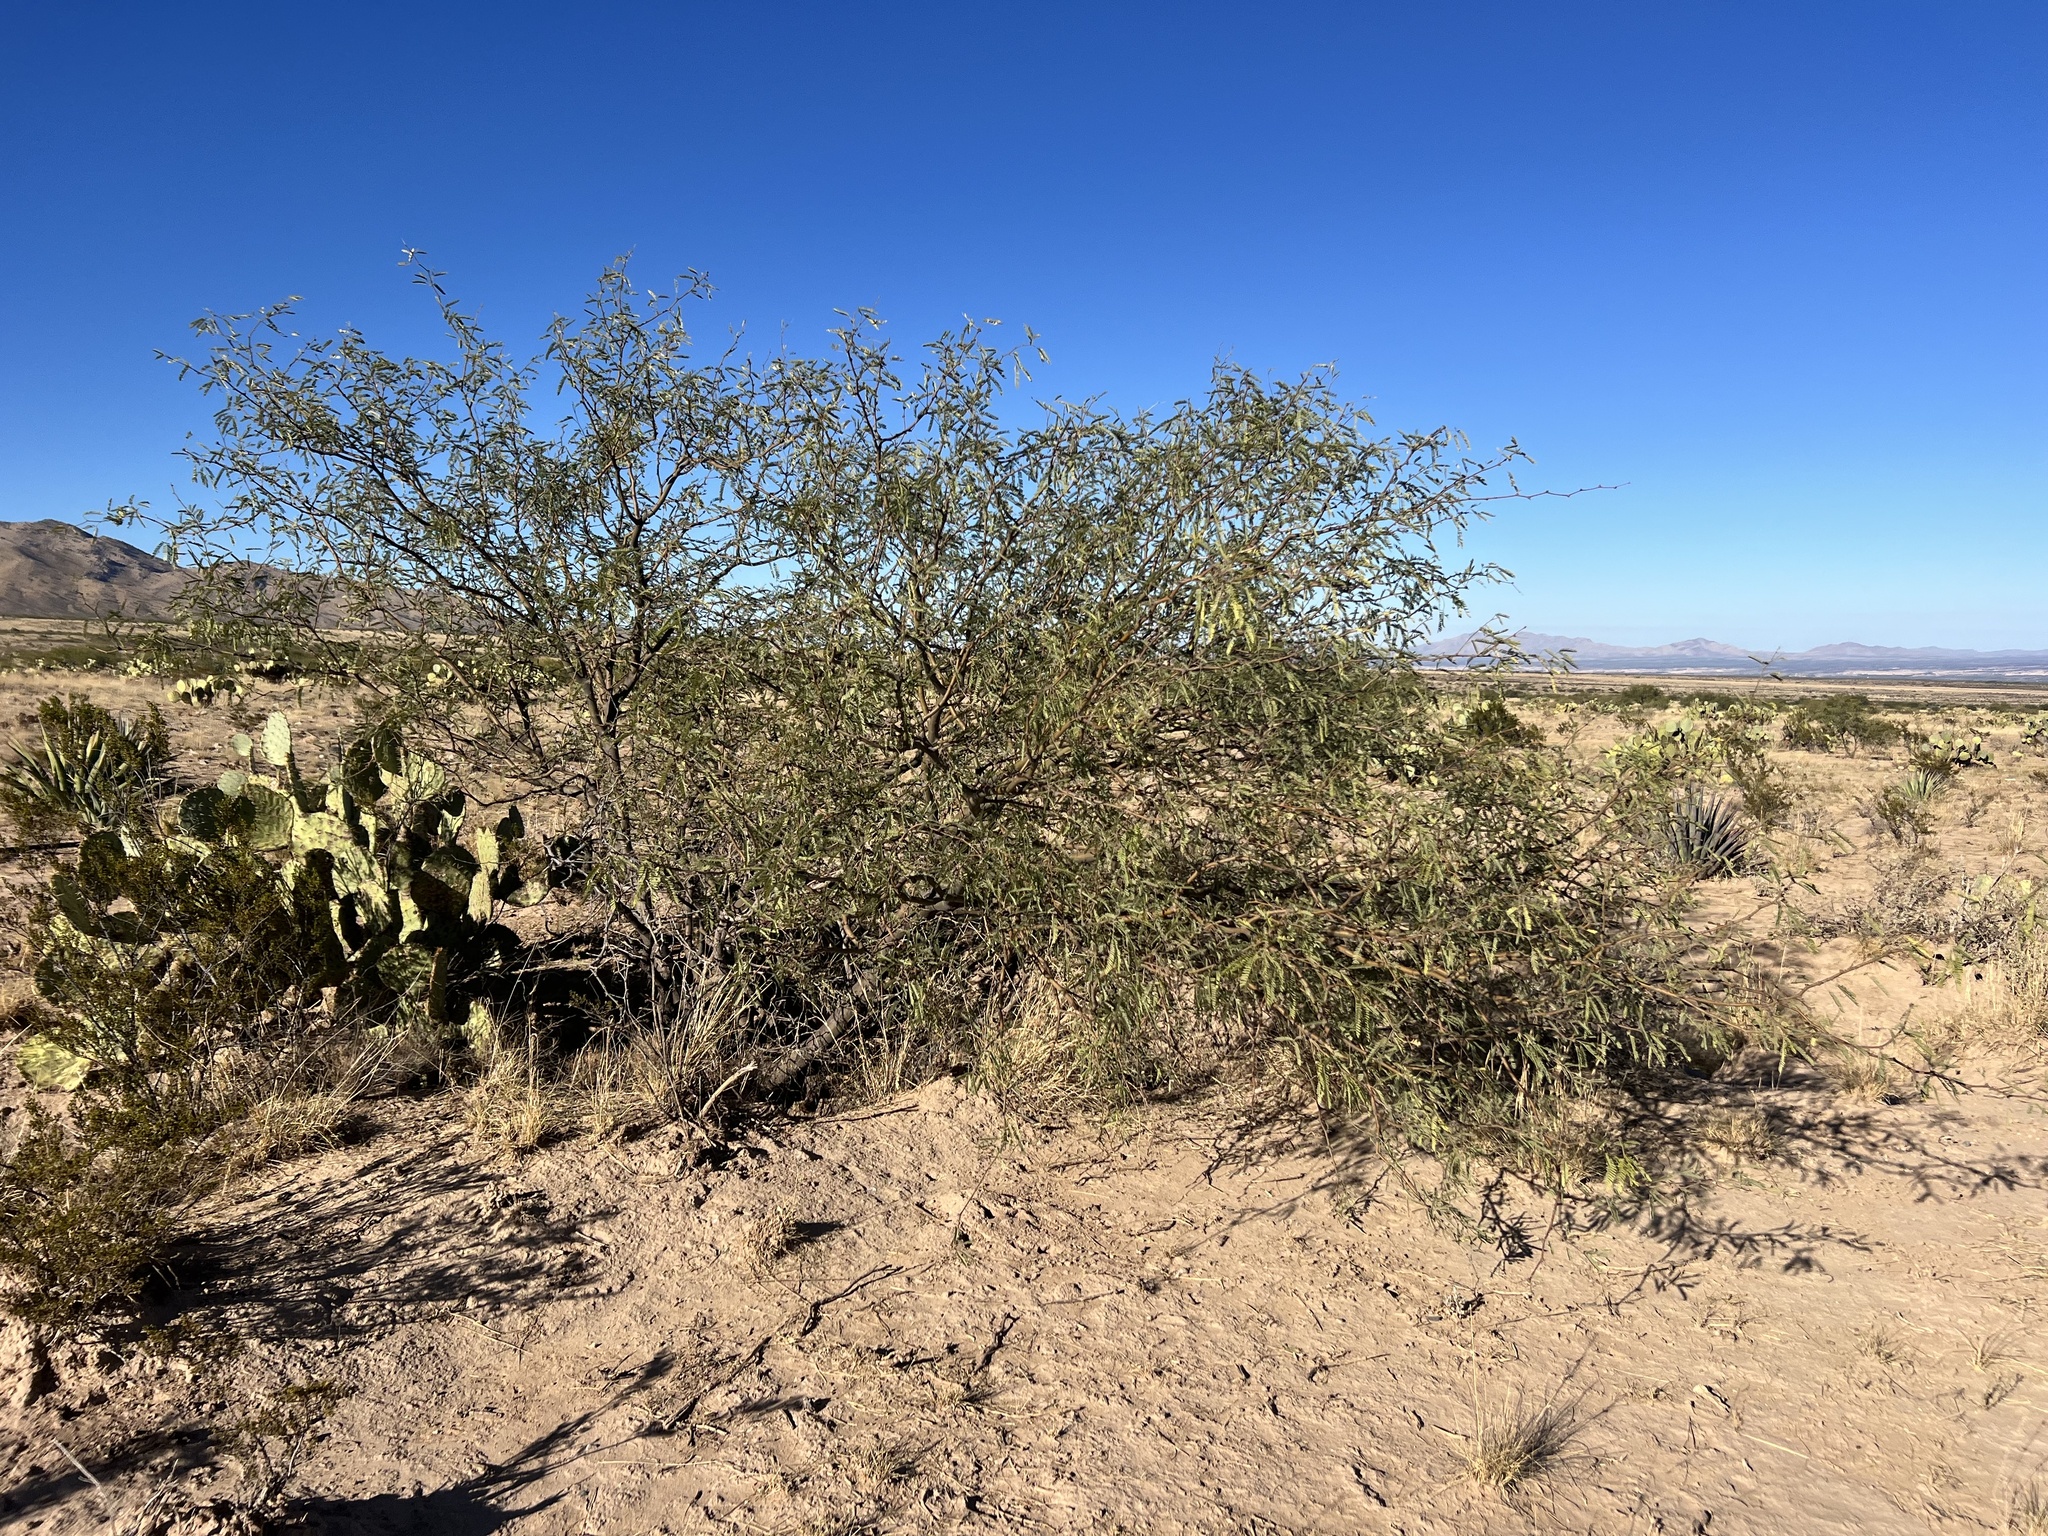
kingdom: Plantae
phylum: Tracheophyta
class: Magnoliopsida
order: Fabales
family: Fabaceae
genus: Prosopis
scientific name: Prosopis velutina
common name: Velvet mesquite
